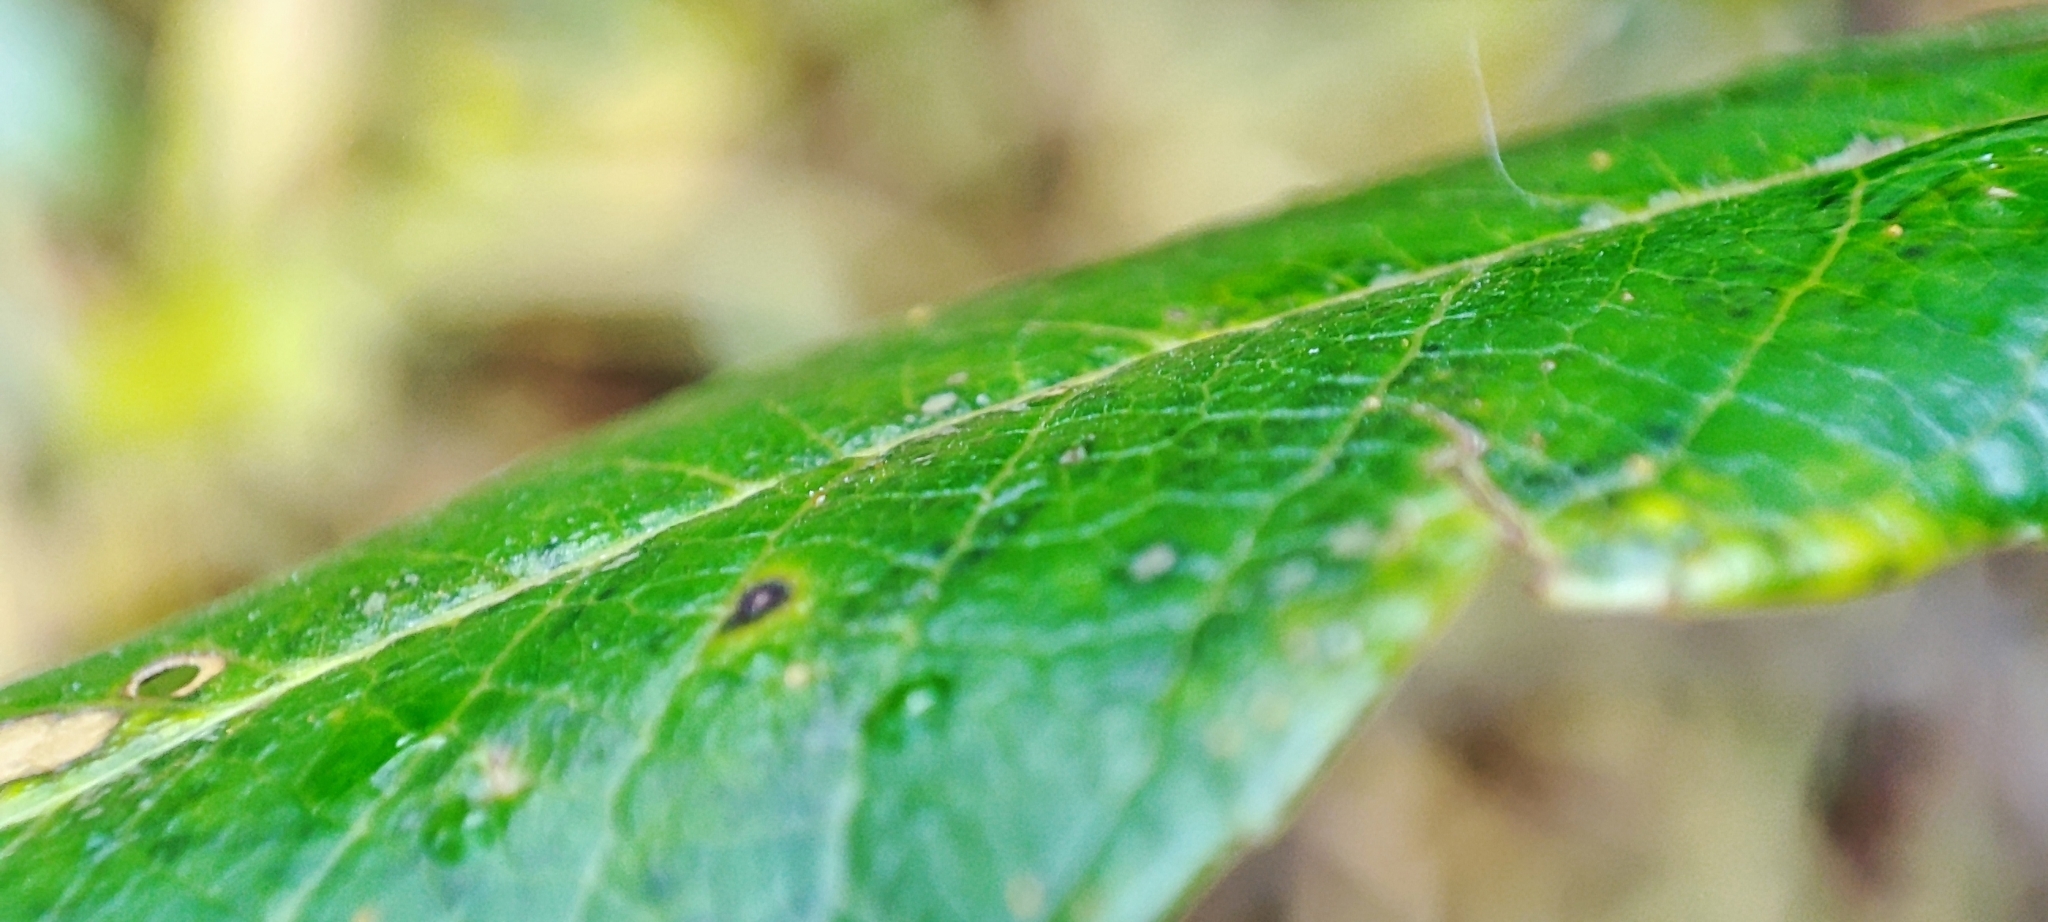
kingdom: Plantae
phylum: Tracheophyta
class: Magnoliopsida
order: Malpighiales
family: Salicaceae
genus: Salix
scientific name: Salix phylicifolia
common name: Tea-leaved willow
